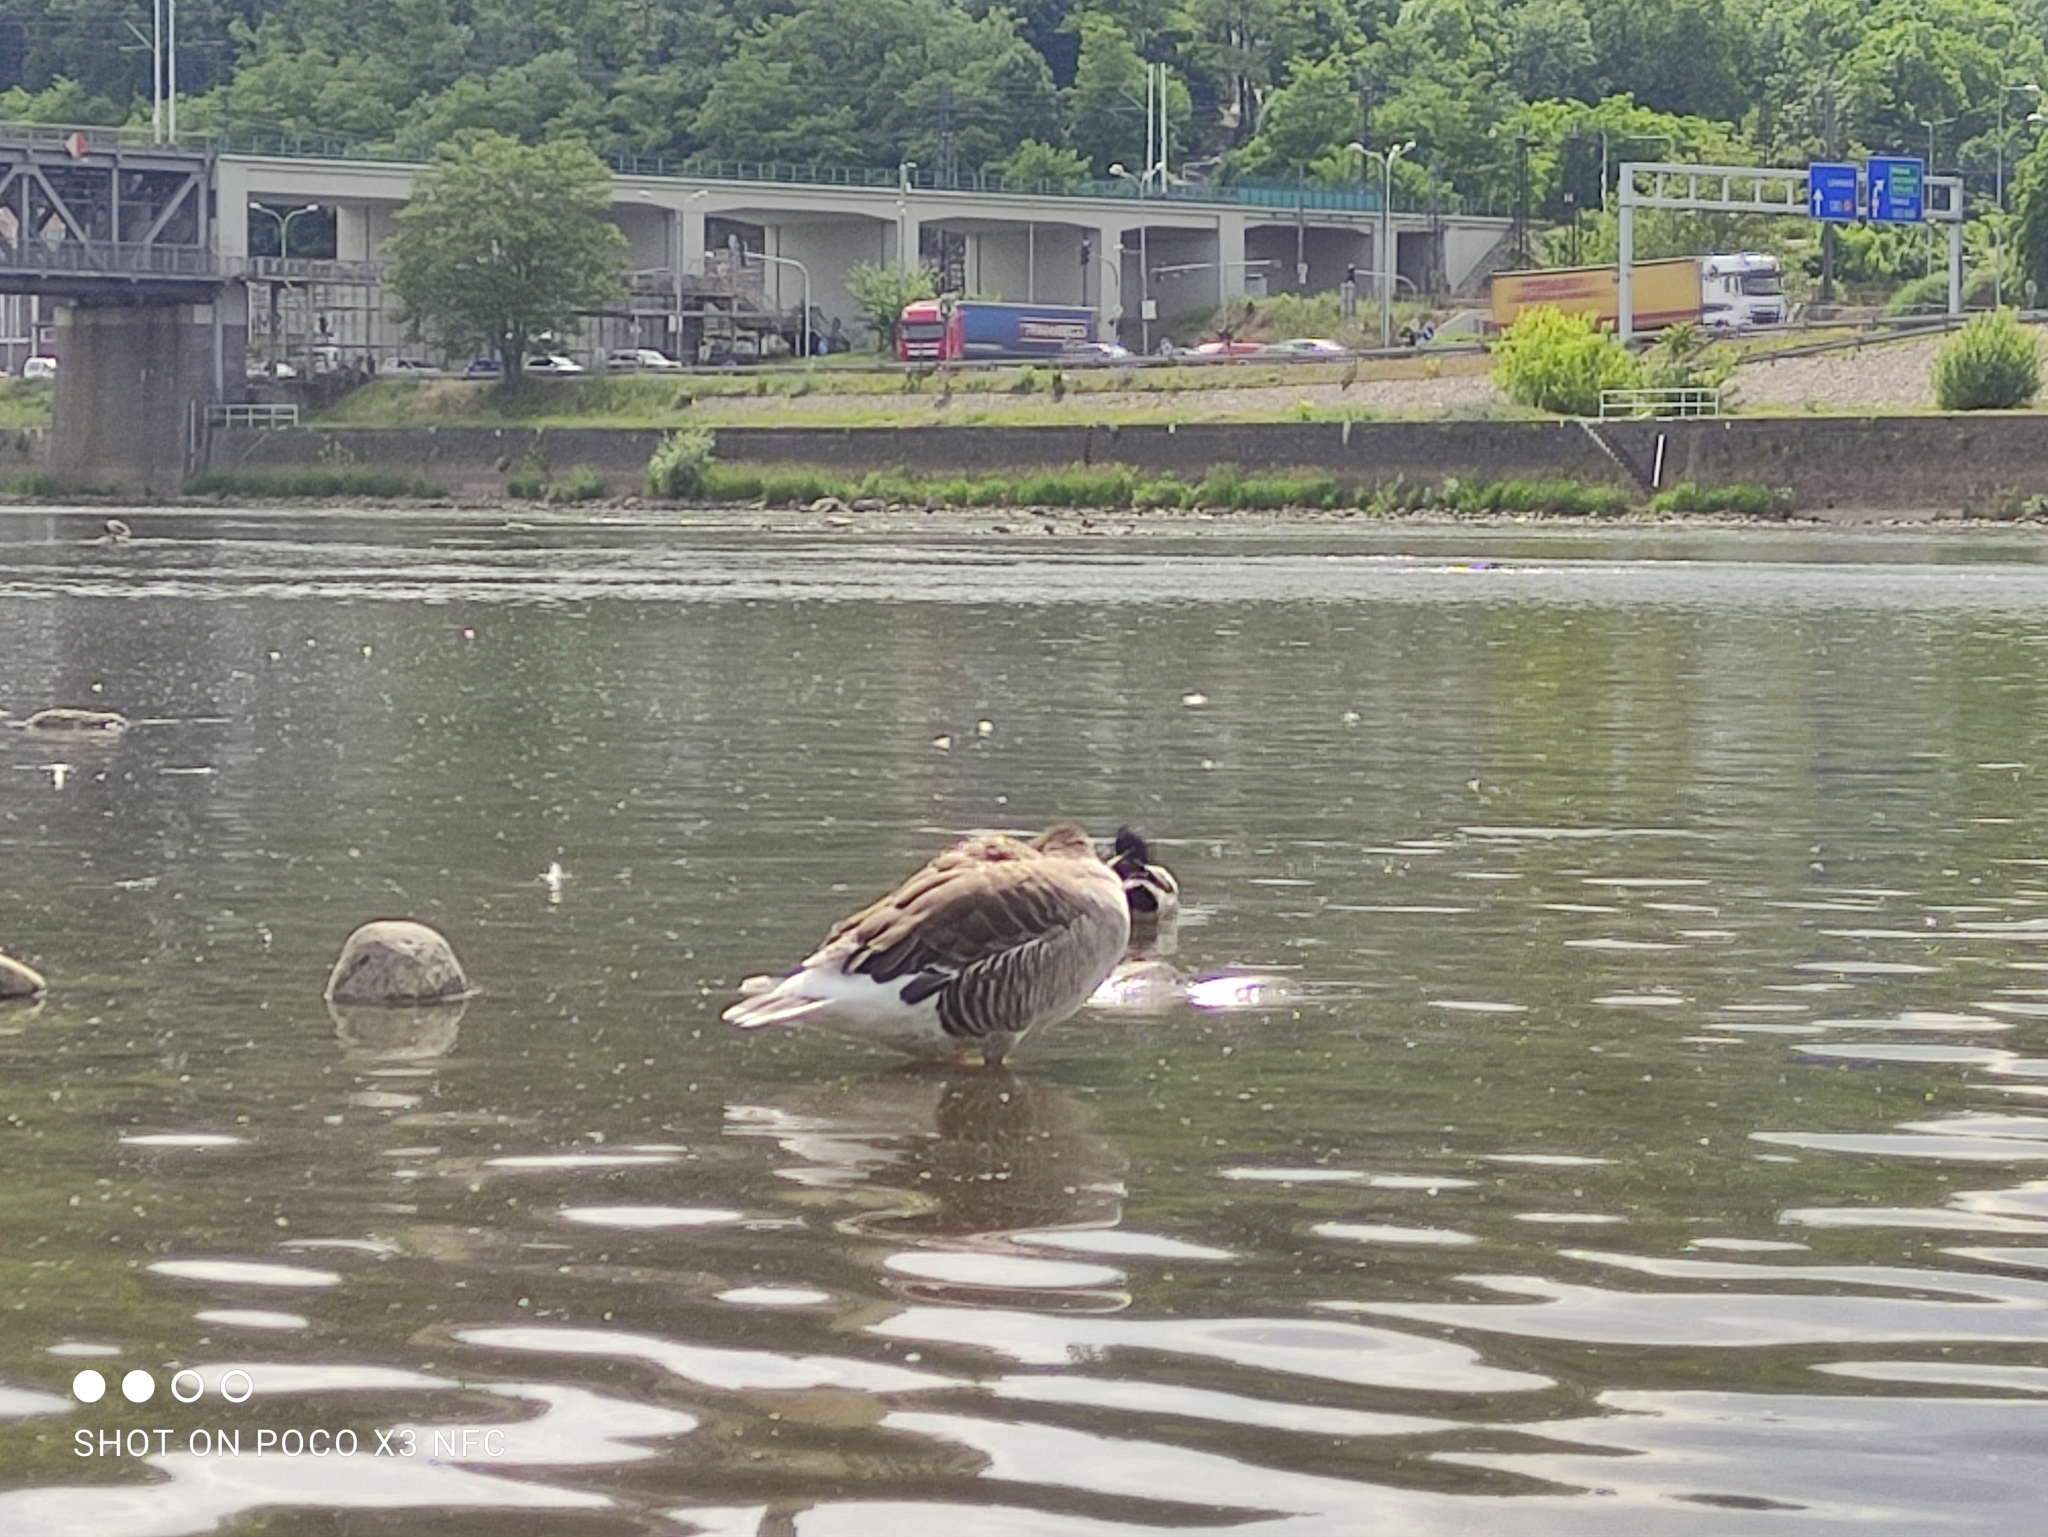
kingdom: Animalia
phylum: Chordata
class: Aves
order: Anseriformes
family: Anatidae
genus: Anser
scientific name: Anser anser
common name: Greylag goose
